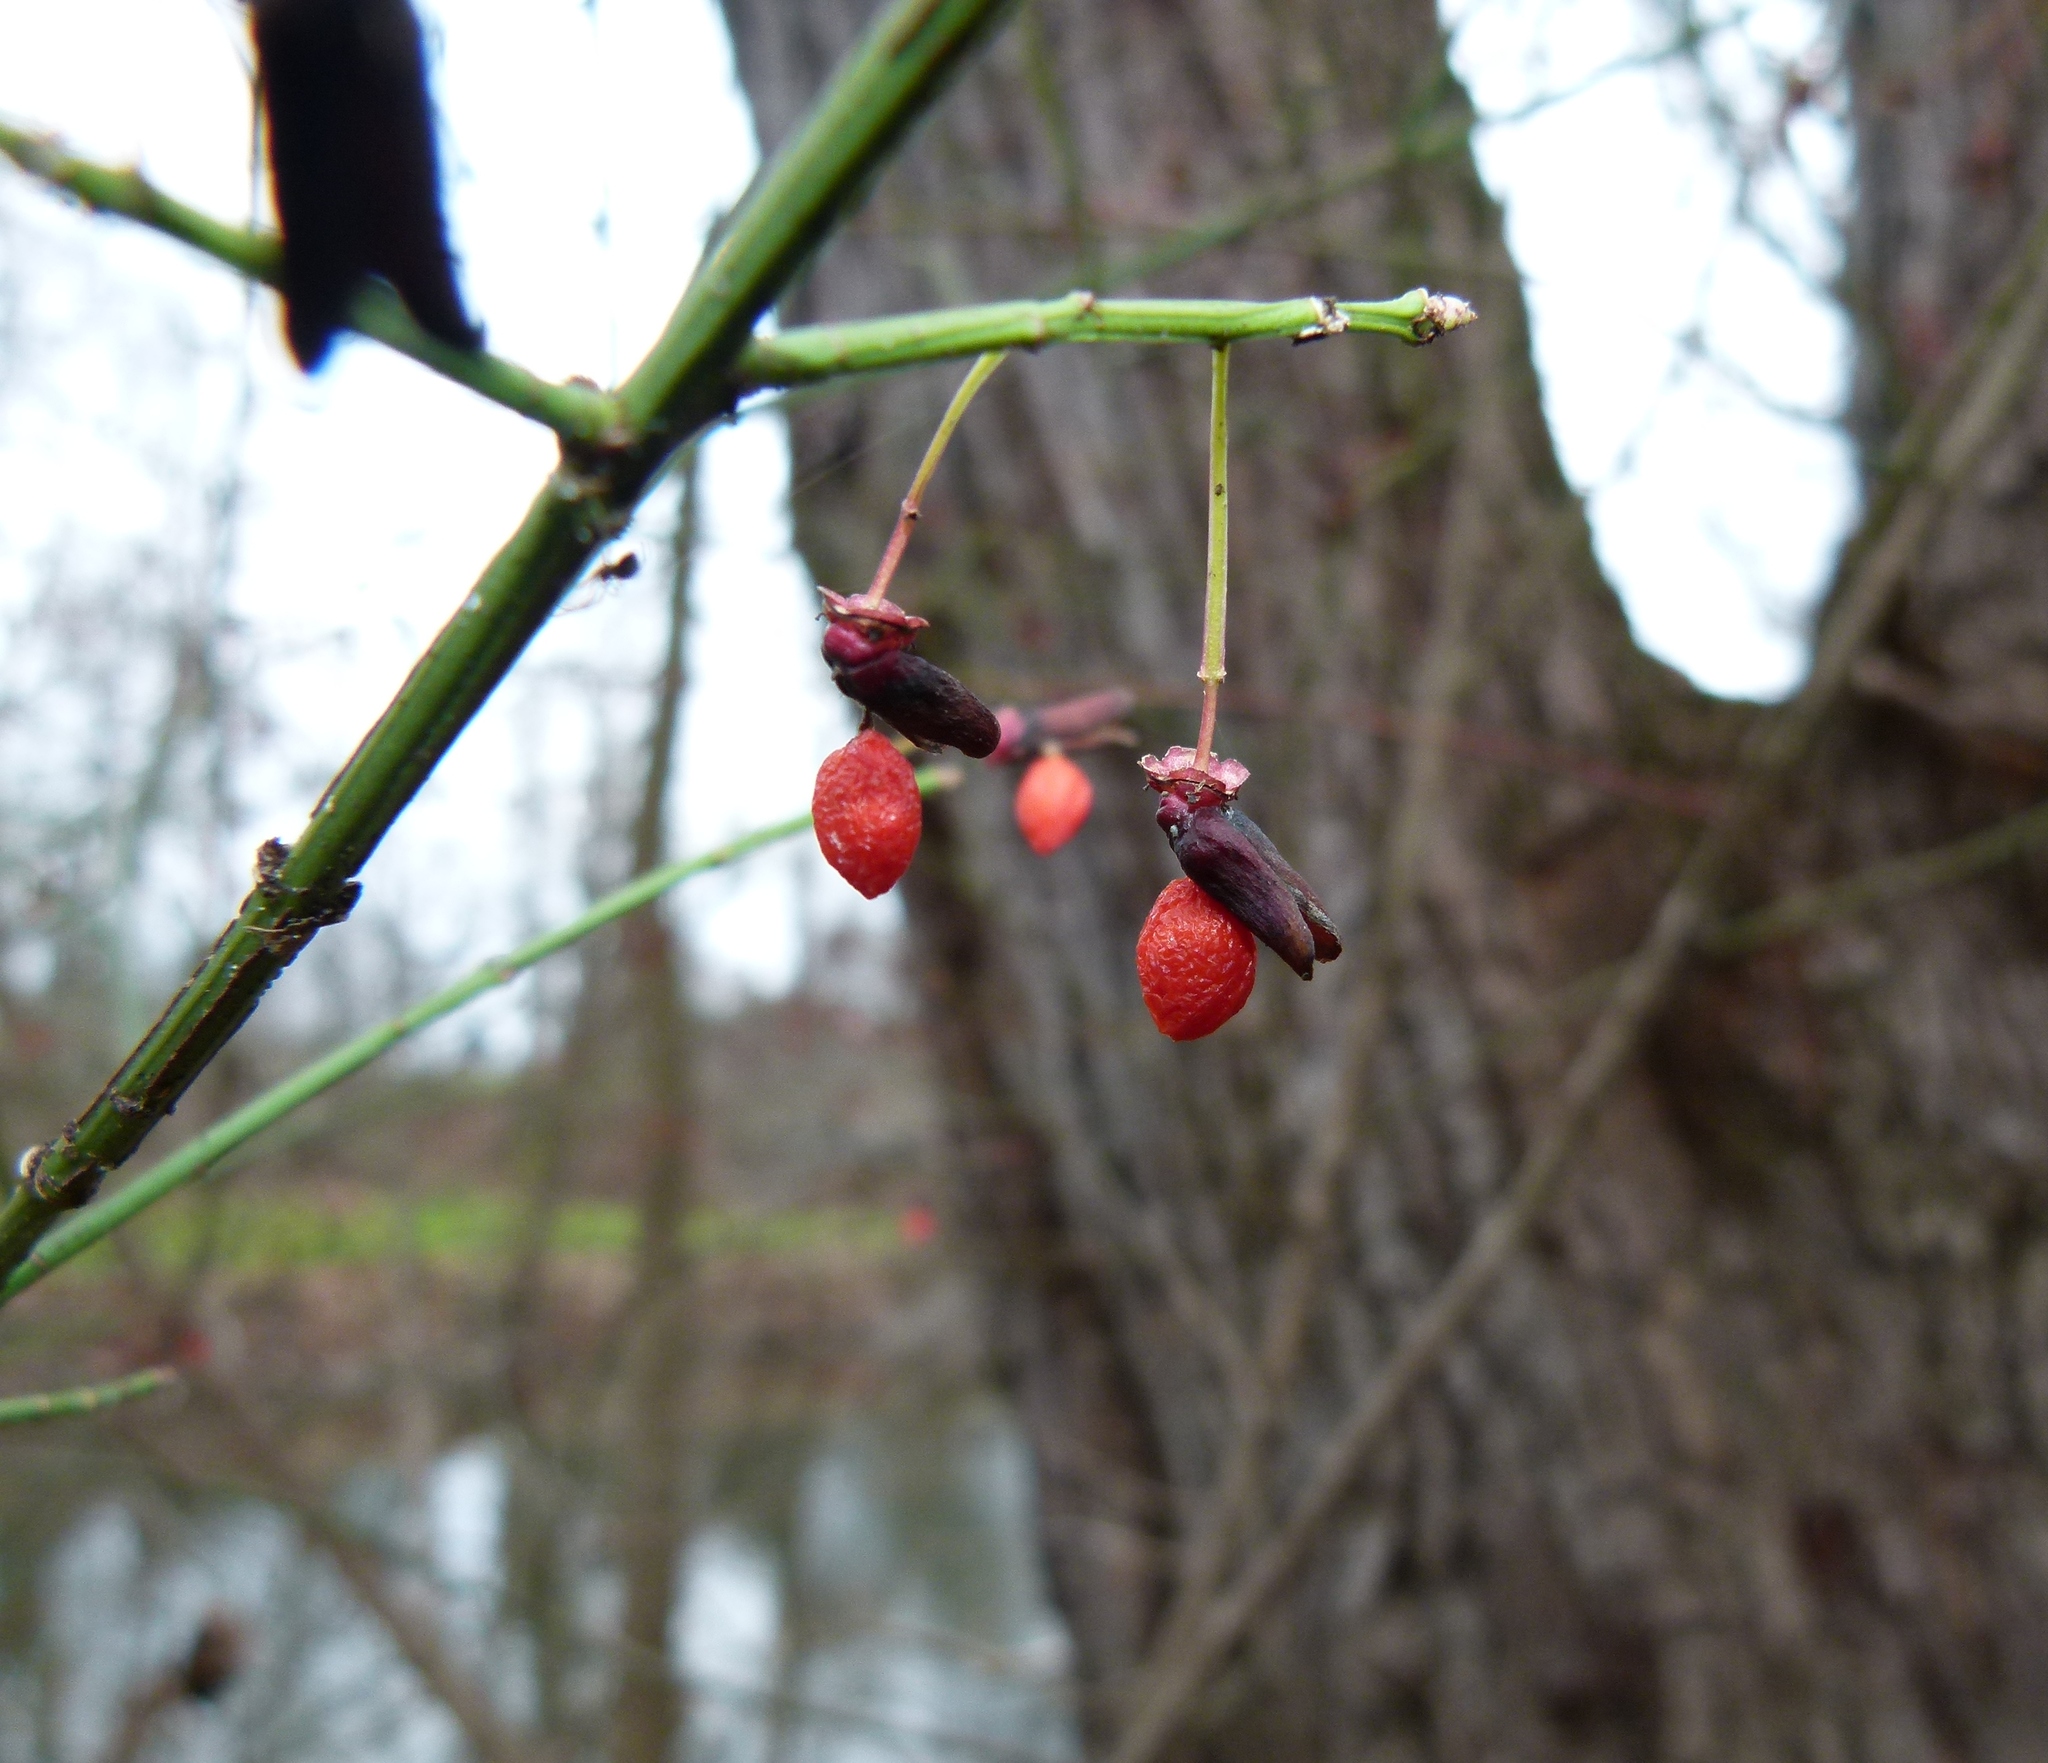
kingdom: Plantae
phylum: Tracheophyta
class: Magnoliopsida
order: Celastrales
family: Celastraceae
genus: Euonymus
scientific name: Euonymus alatus
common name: Winged euonymus
